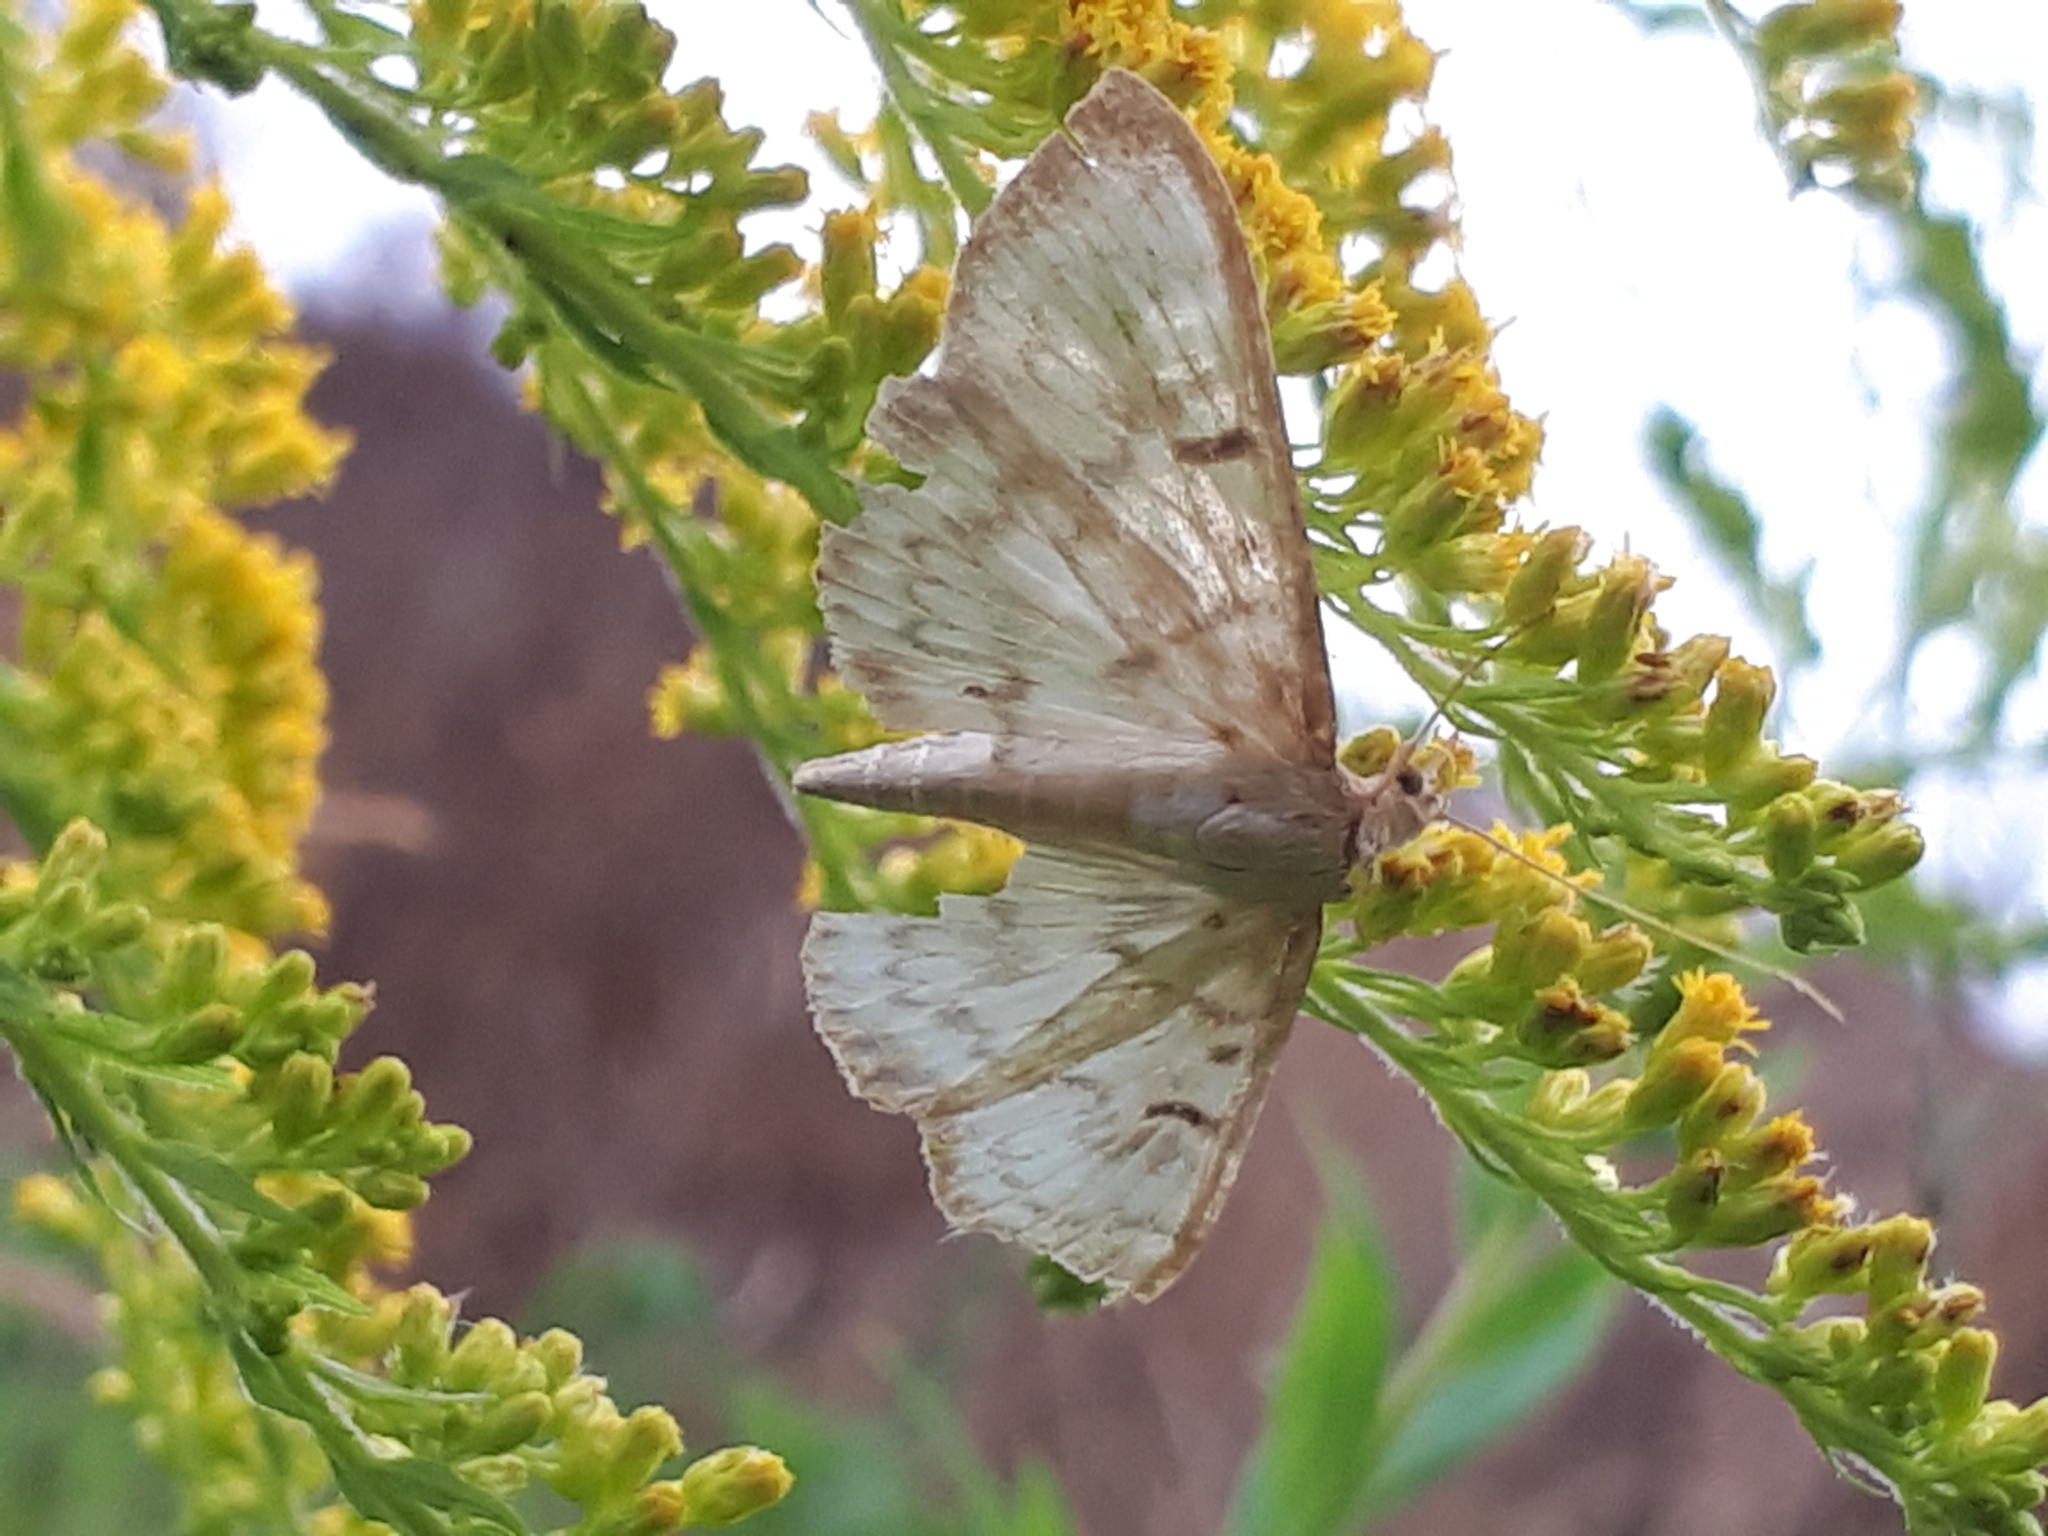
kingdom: Animalia
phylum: Arthropoda
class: Insecta
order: Lepidoptera
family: Crambidae
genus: Patania
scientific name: Patania ruralis
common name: Mother of pearl
